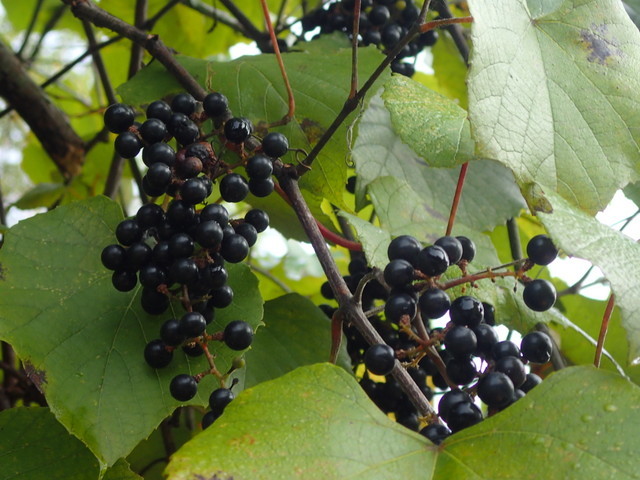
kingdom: Plantae
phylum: Tracheophyta
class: Magnoliopsida
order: Vitales
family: Vitaceae
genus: Vitis
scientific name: Vitis vulpina
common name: Frost grape
